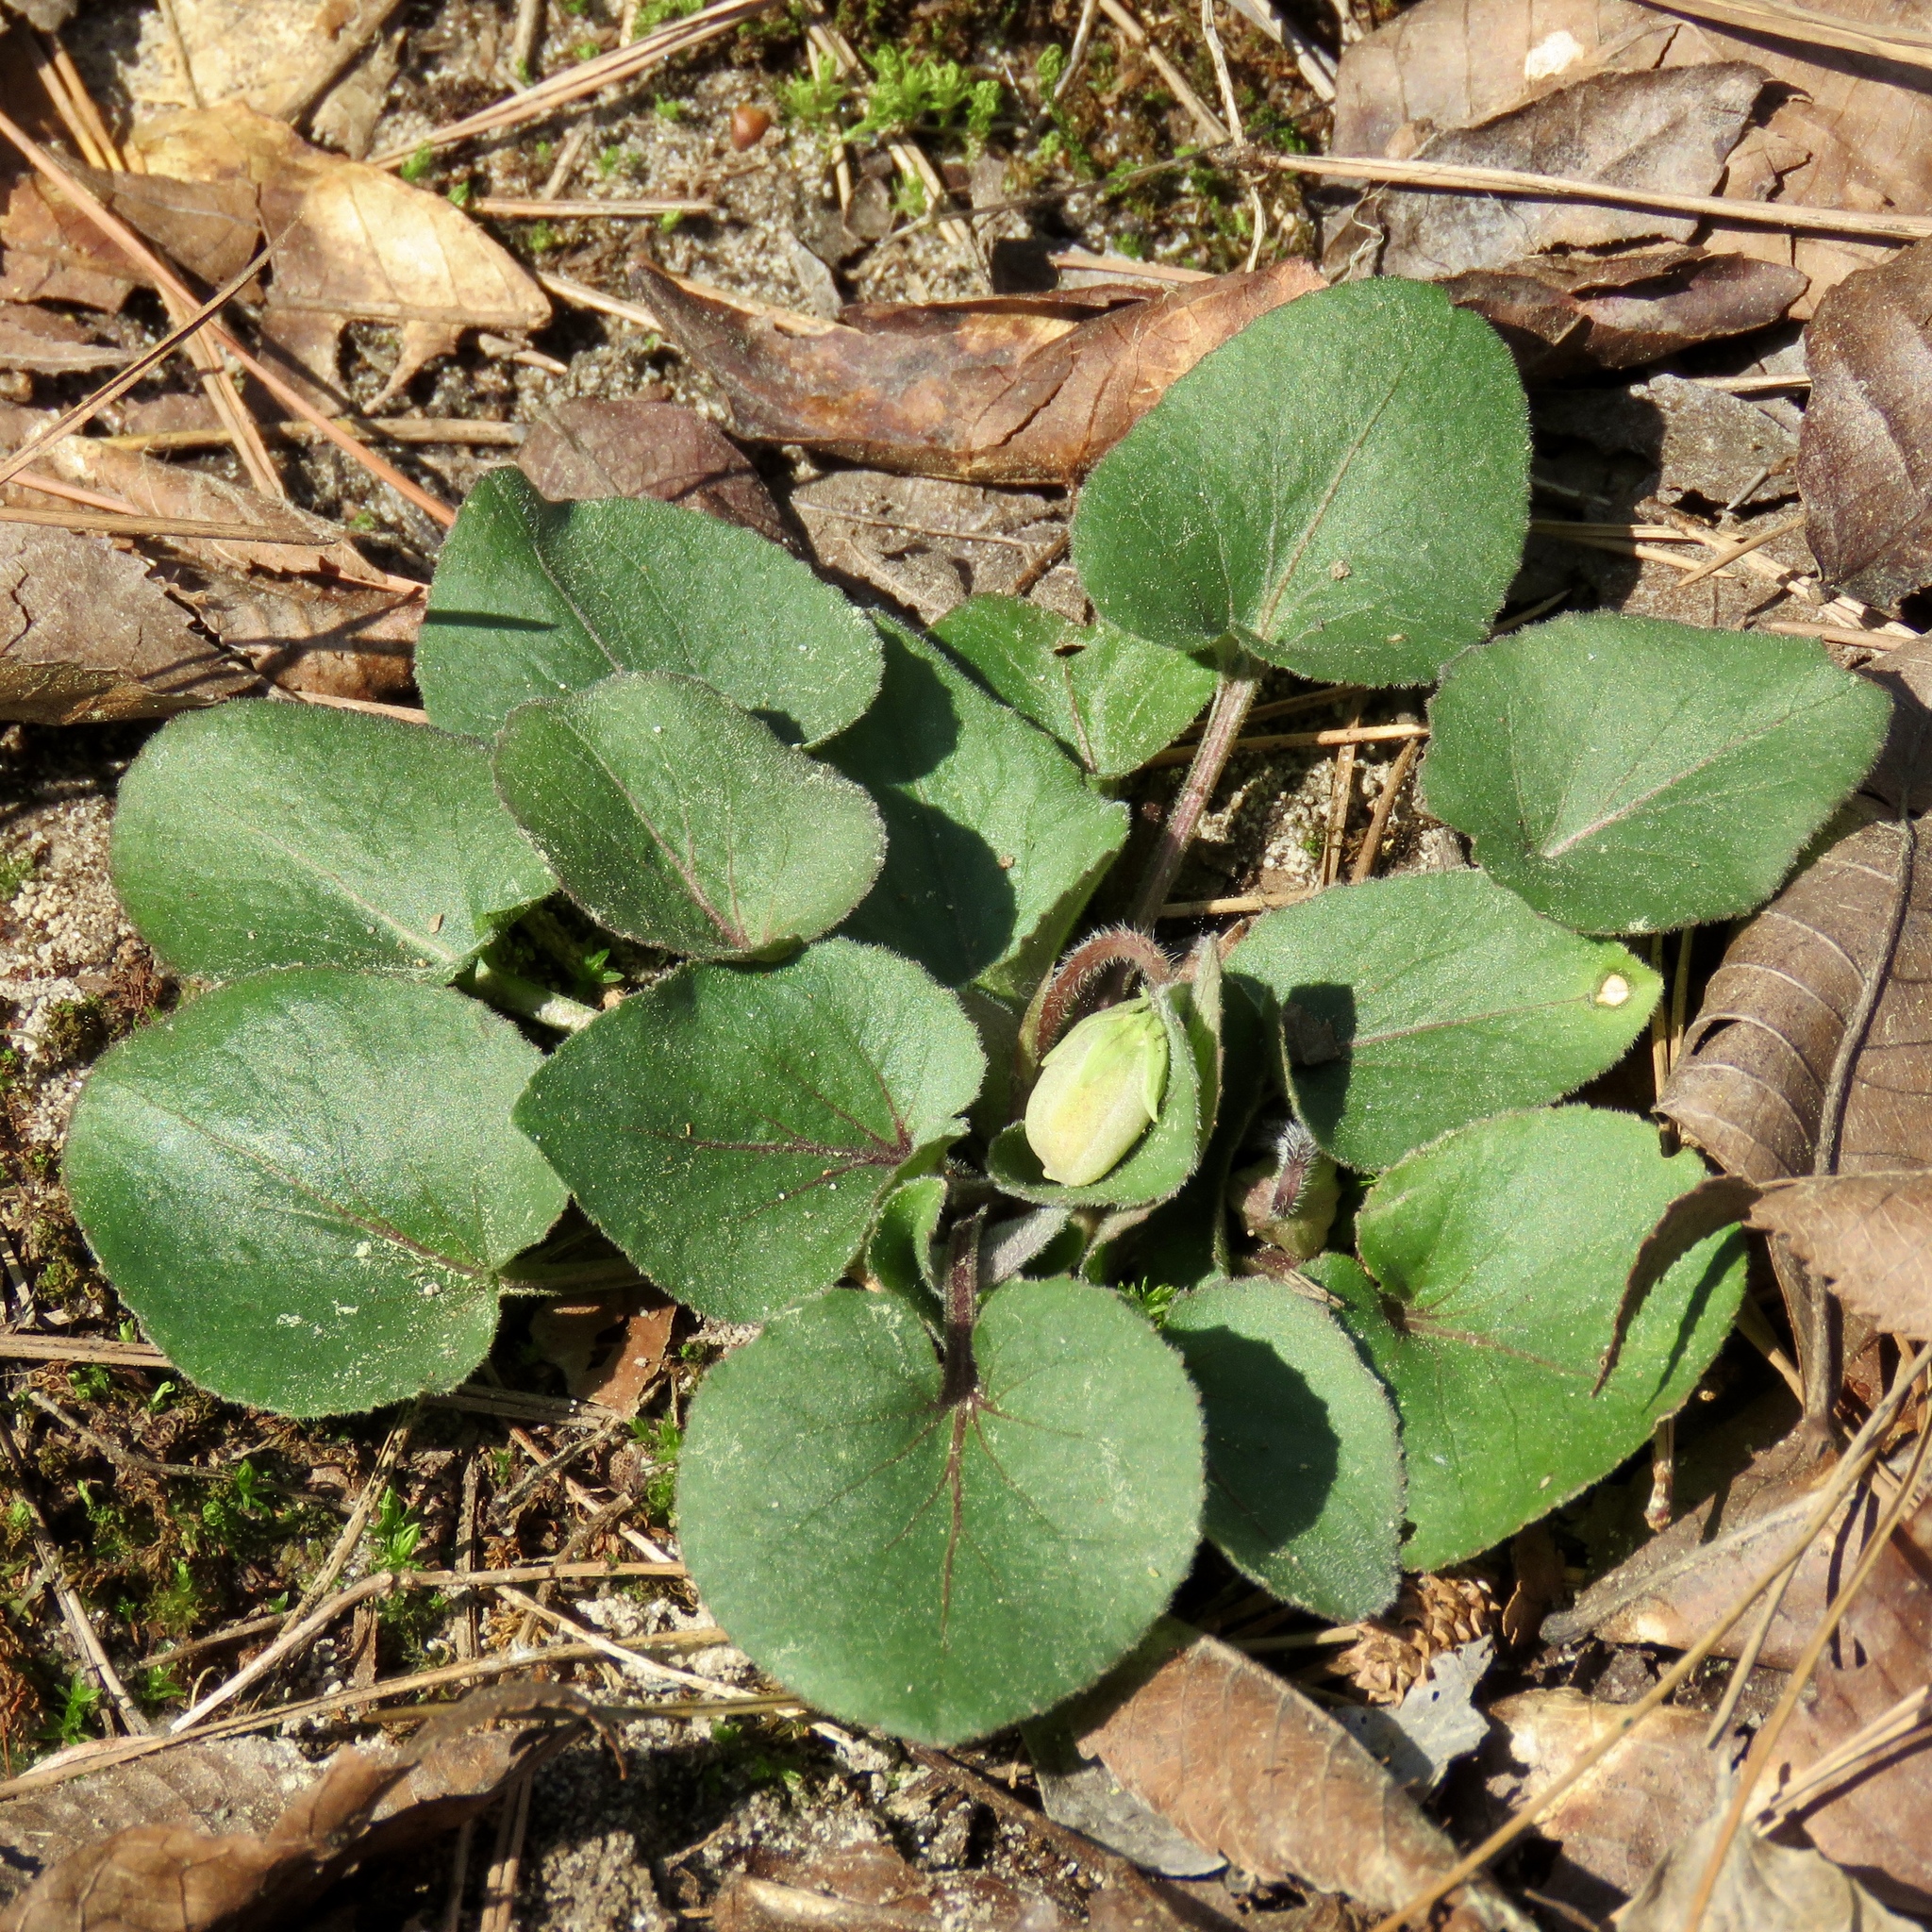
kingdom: Plantae
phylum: Tracheophyta
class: Magnoliopsida
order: Malpighiales
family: Violaceae
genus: Viola
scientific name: Viola villosa
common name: Carolina violet
